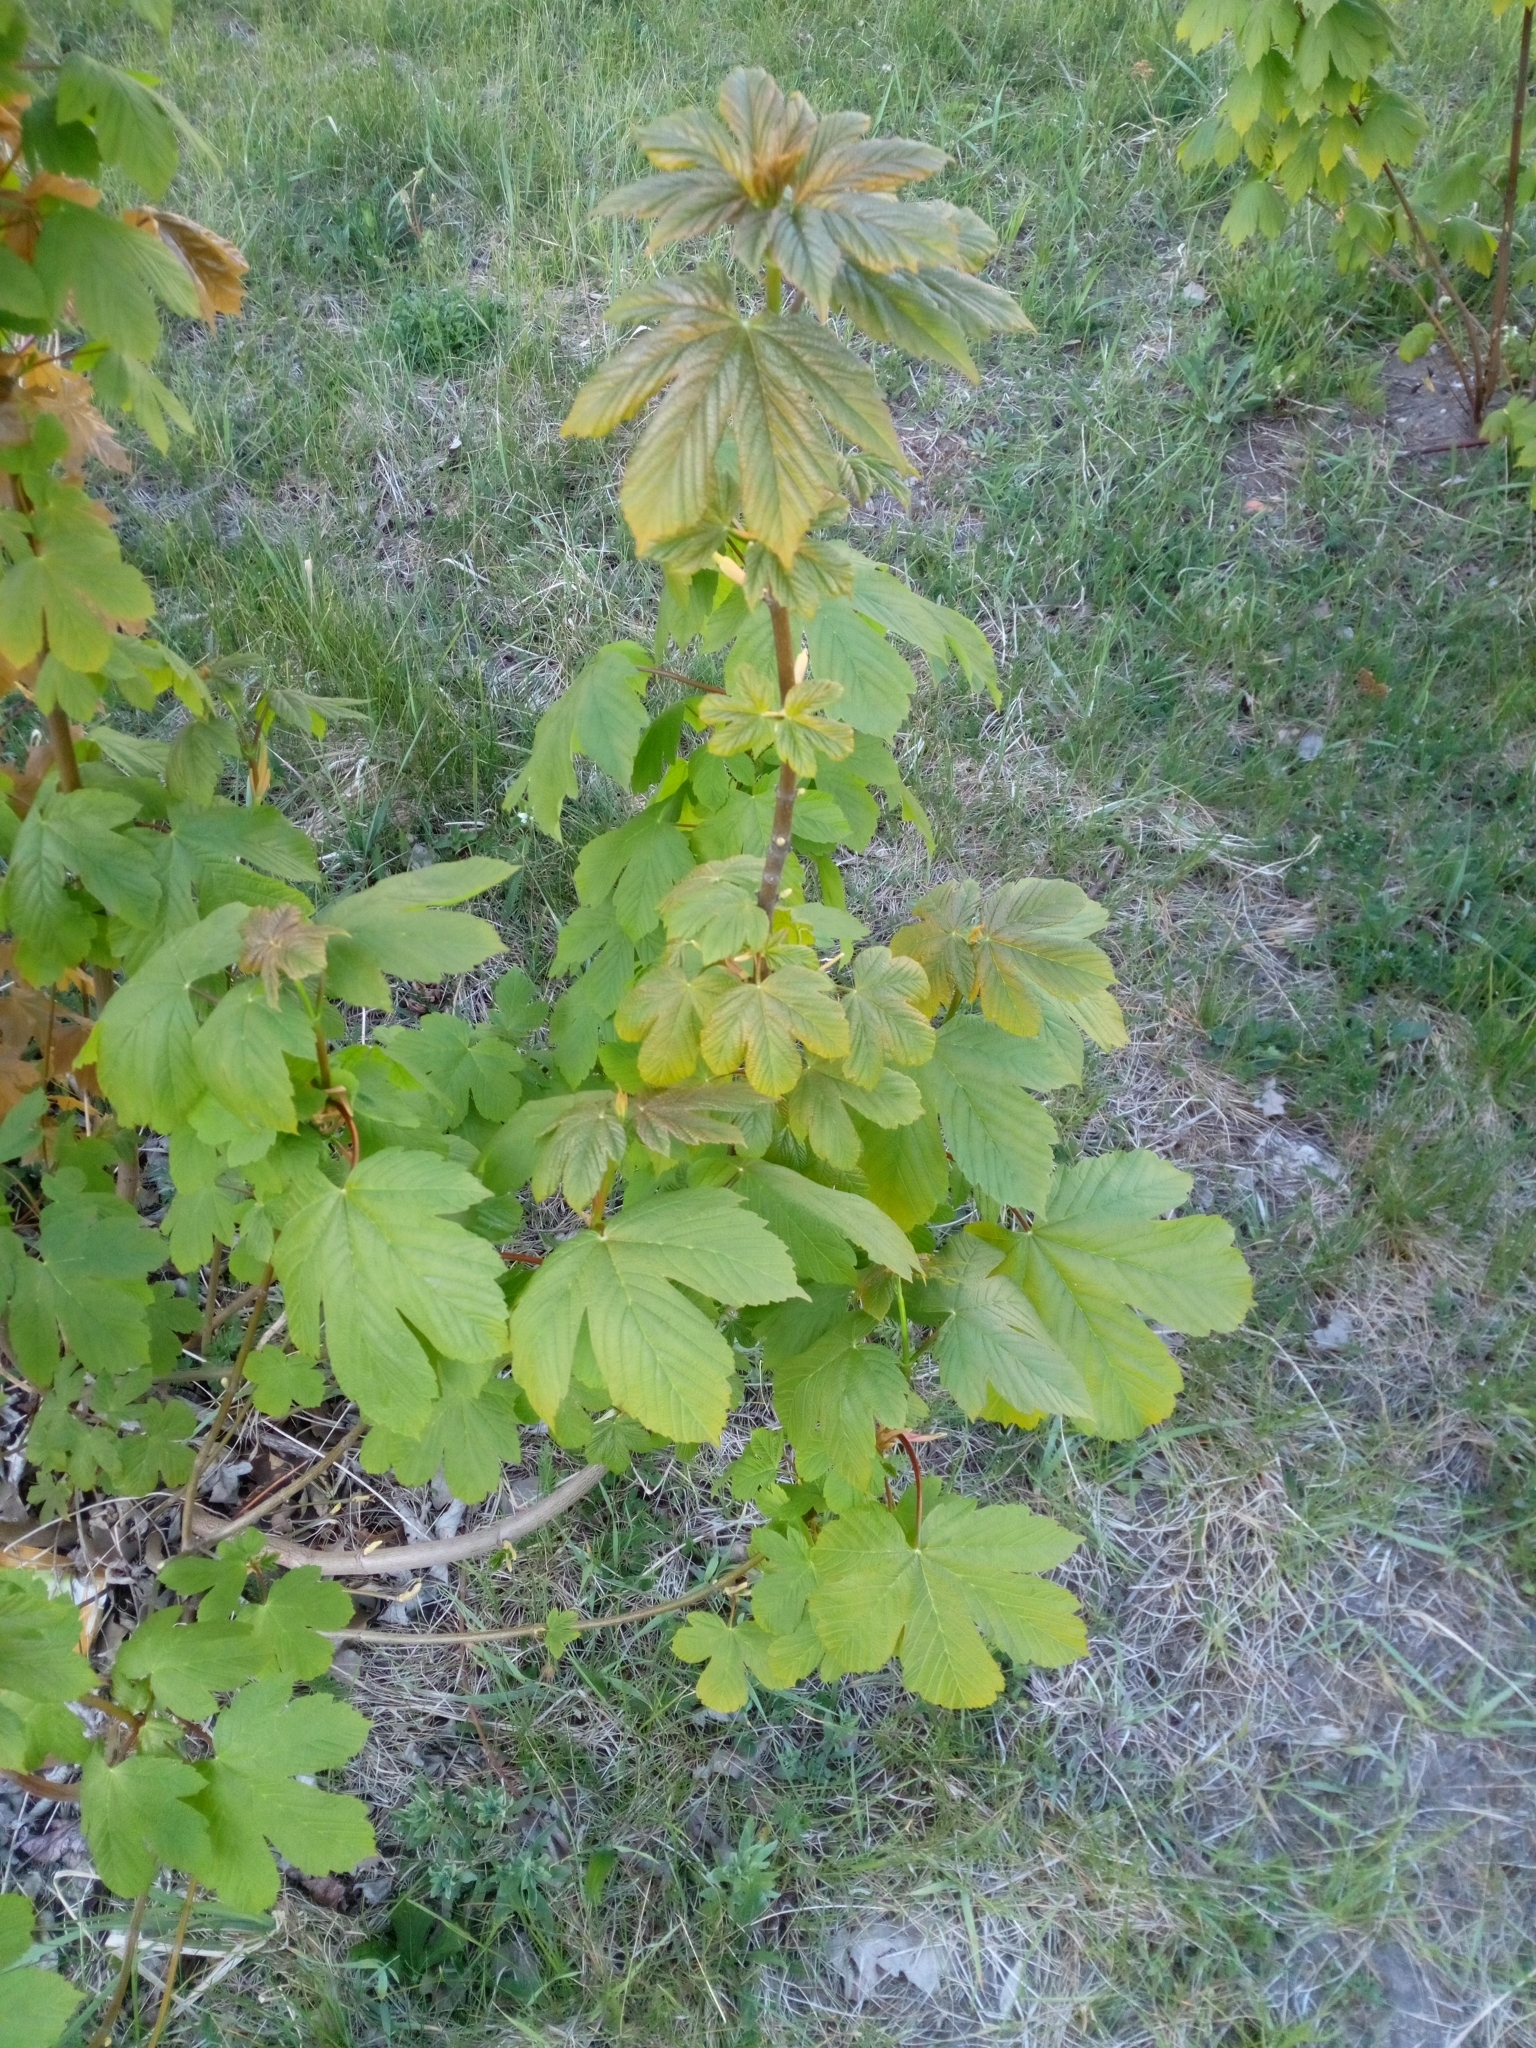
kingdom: Plantae
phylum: Tracheophyta
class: Magnoliopsida
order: Sapindales
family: Sapindaceae
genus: Acer
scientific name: Acer pseudoplatanus
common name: Sycamore
